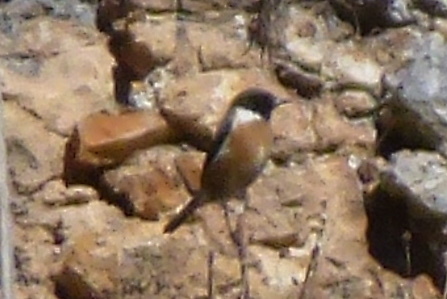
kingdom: Animalia
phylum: Chordata
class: Aves
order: Passeriformes
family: Muscicapidae
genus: Saxicola
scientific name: Saxicola rubicola
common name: European stonechat
